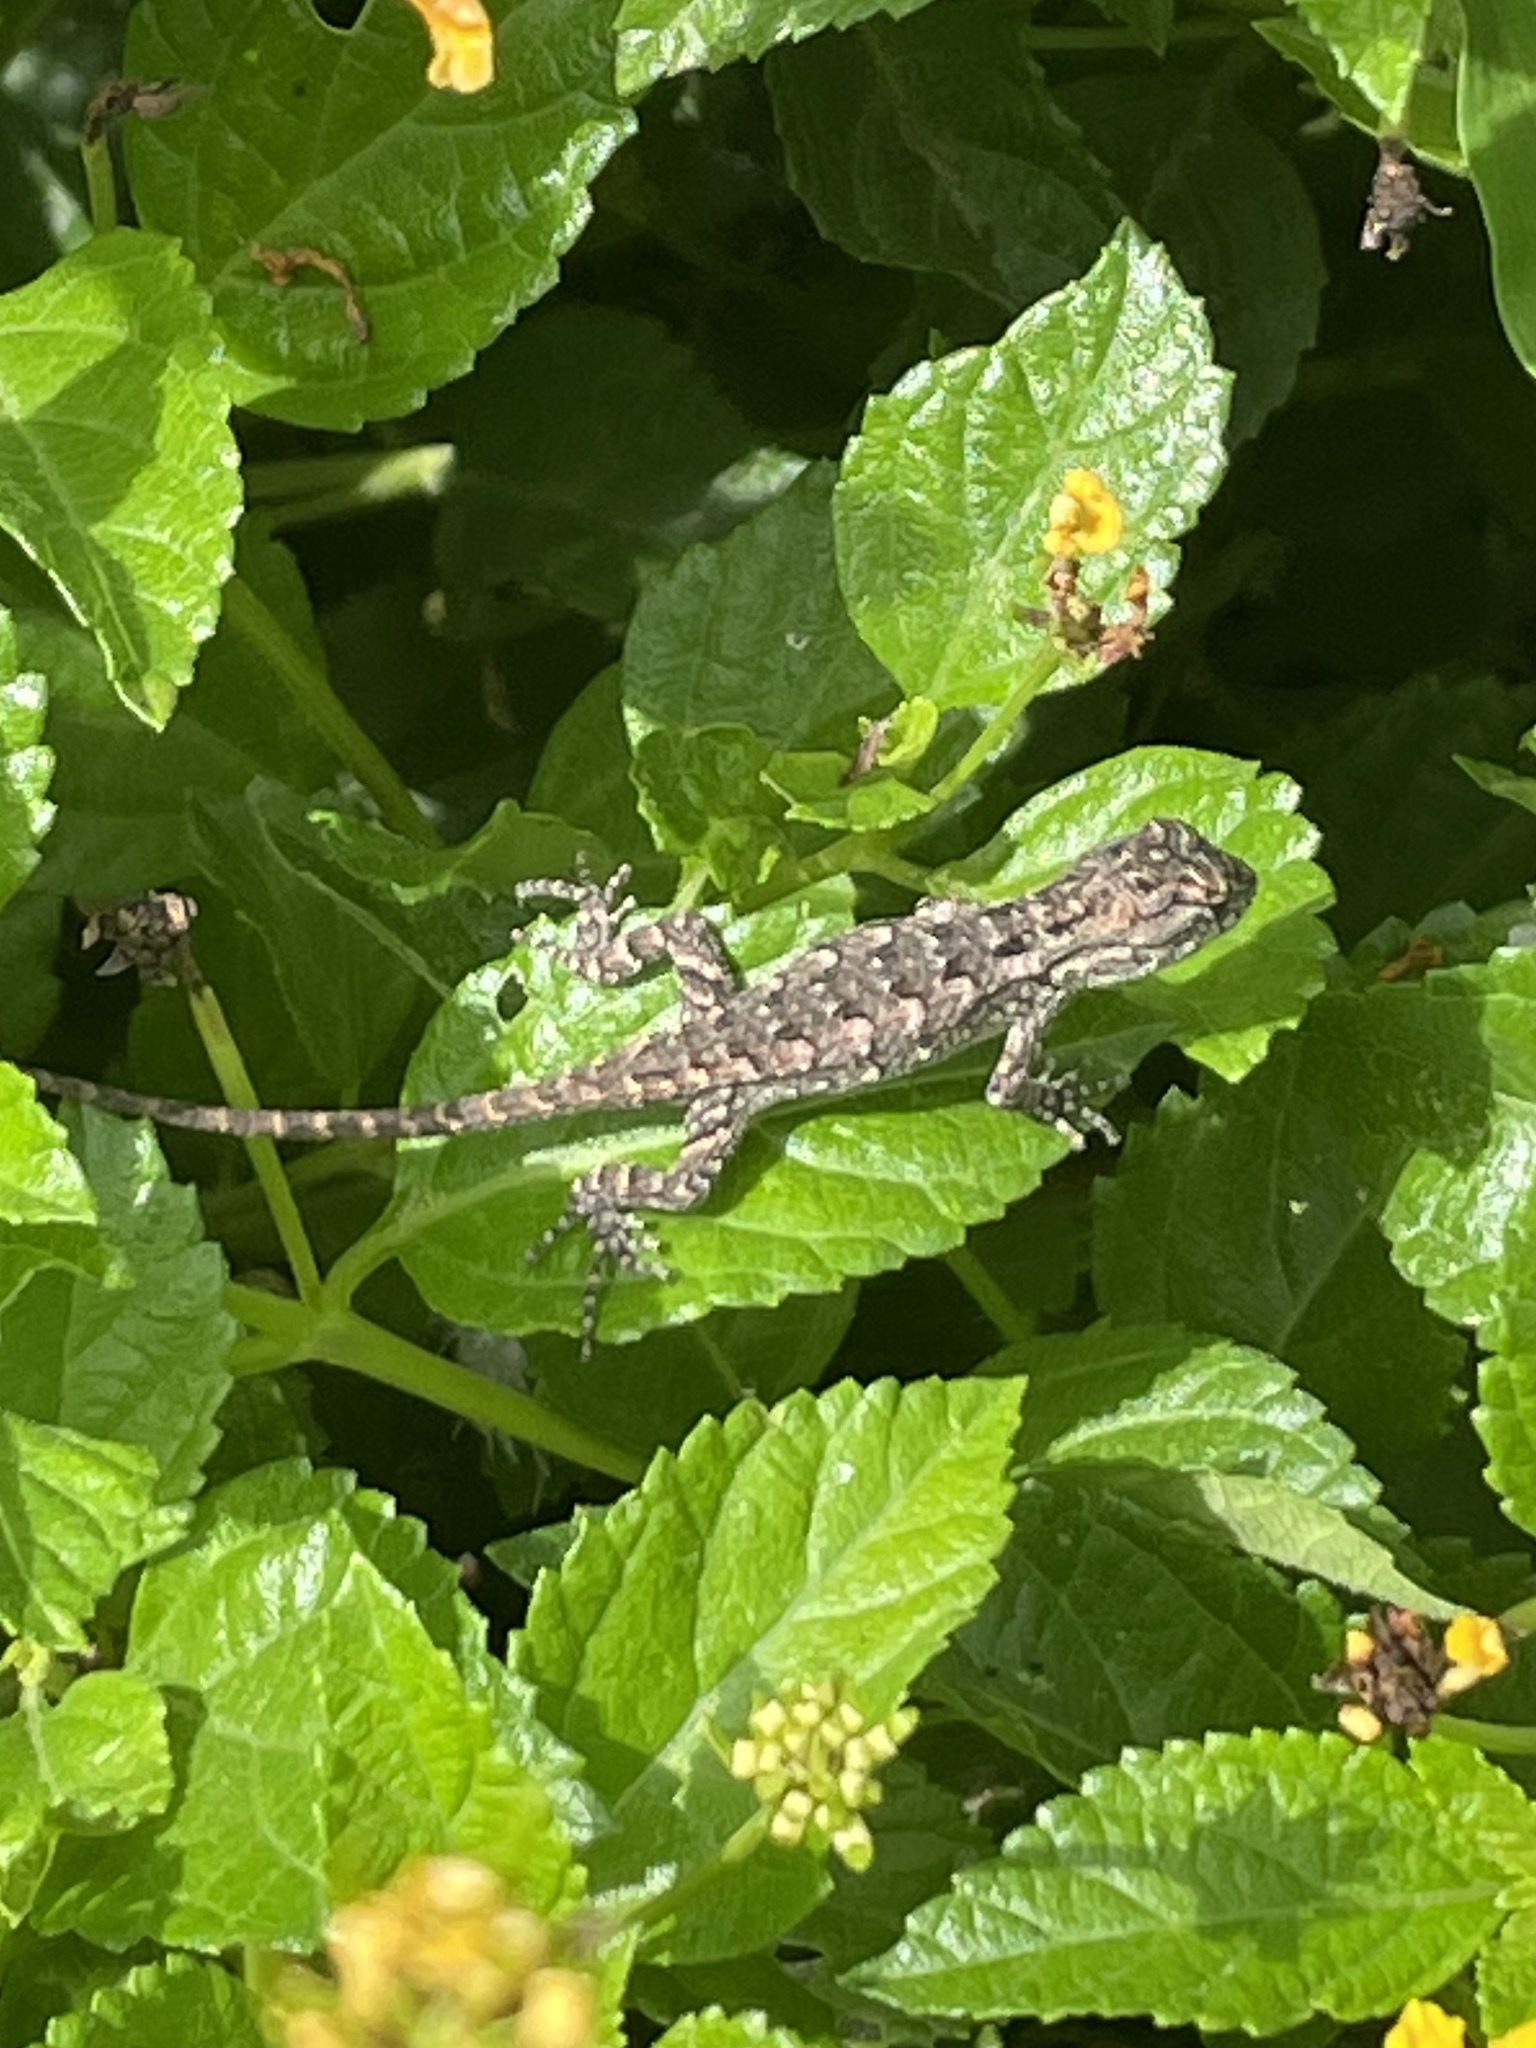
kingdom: Animalia
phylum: Chordata
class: Squamata
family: Phrynosomatidae
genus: Sceloporus
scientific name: Sceloporus olivaceus
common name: Texas spiny lizard
